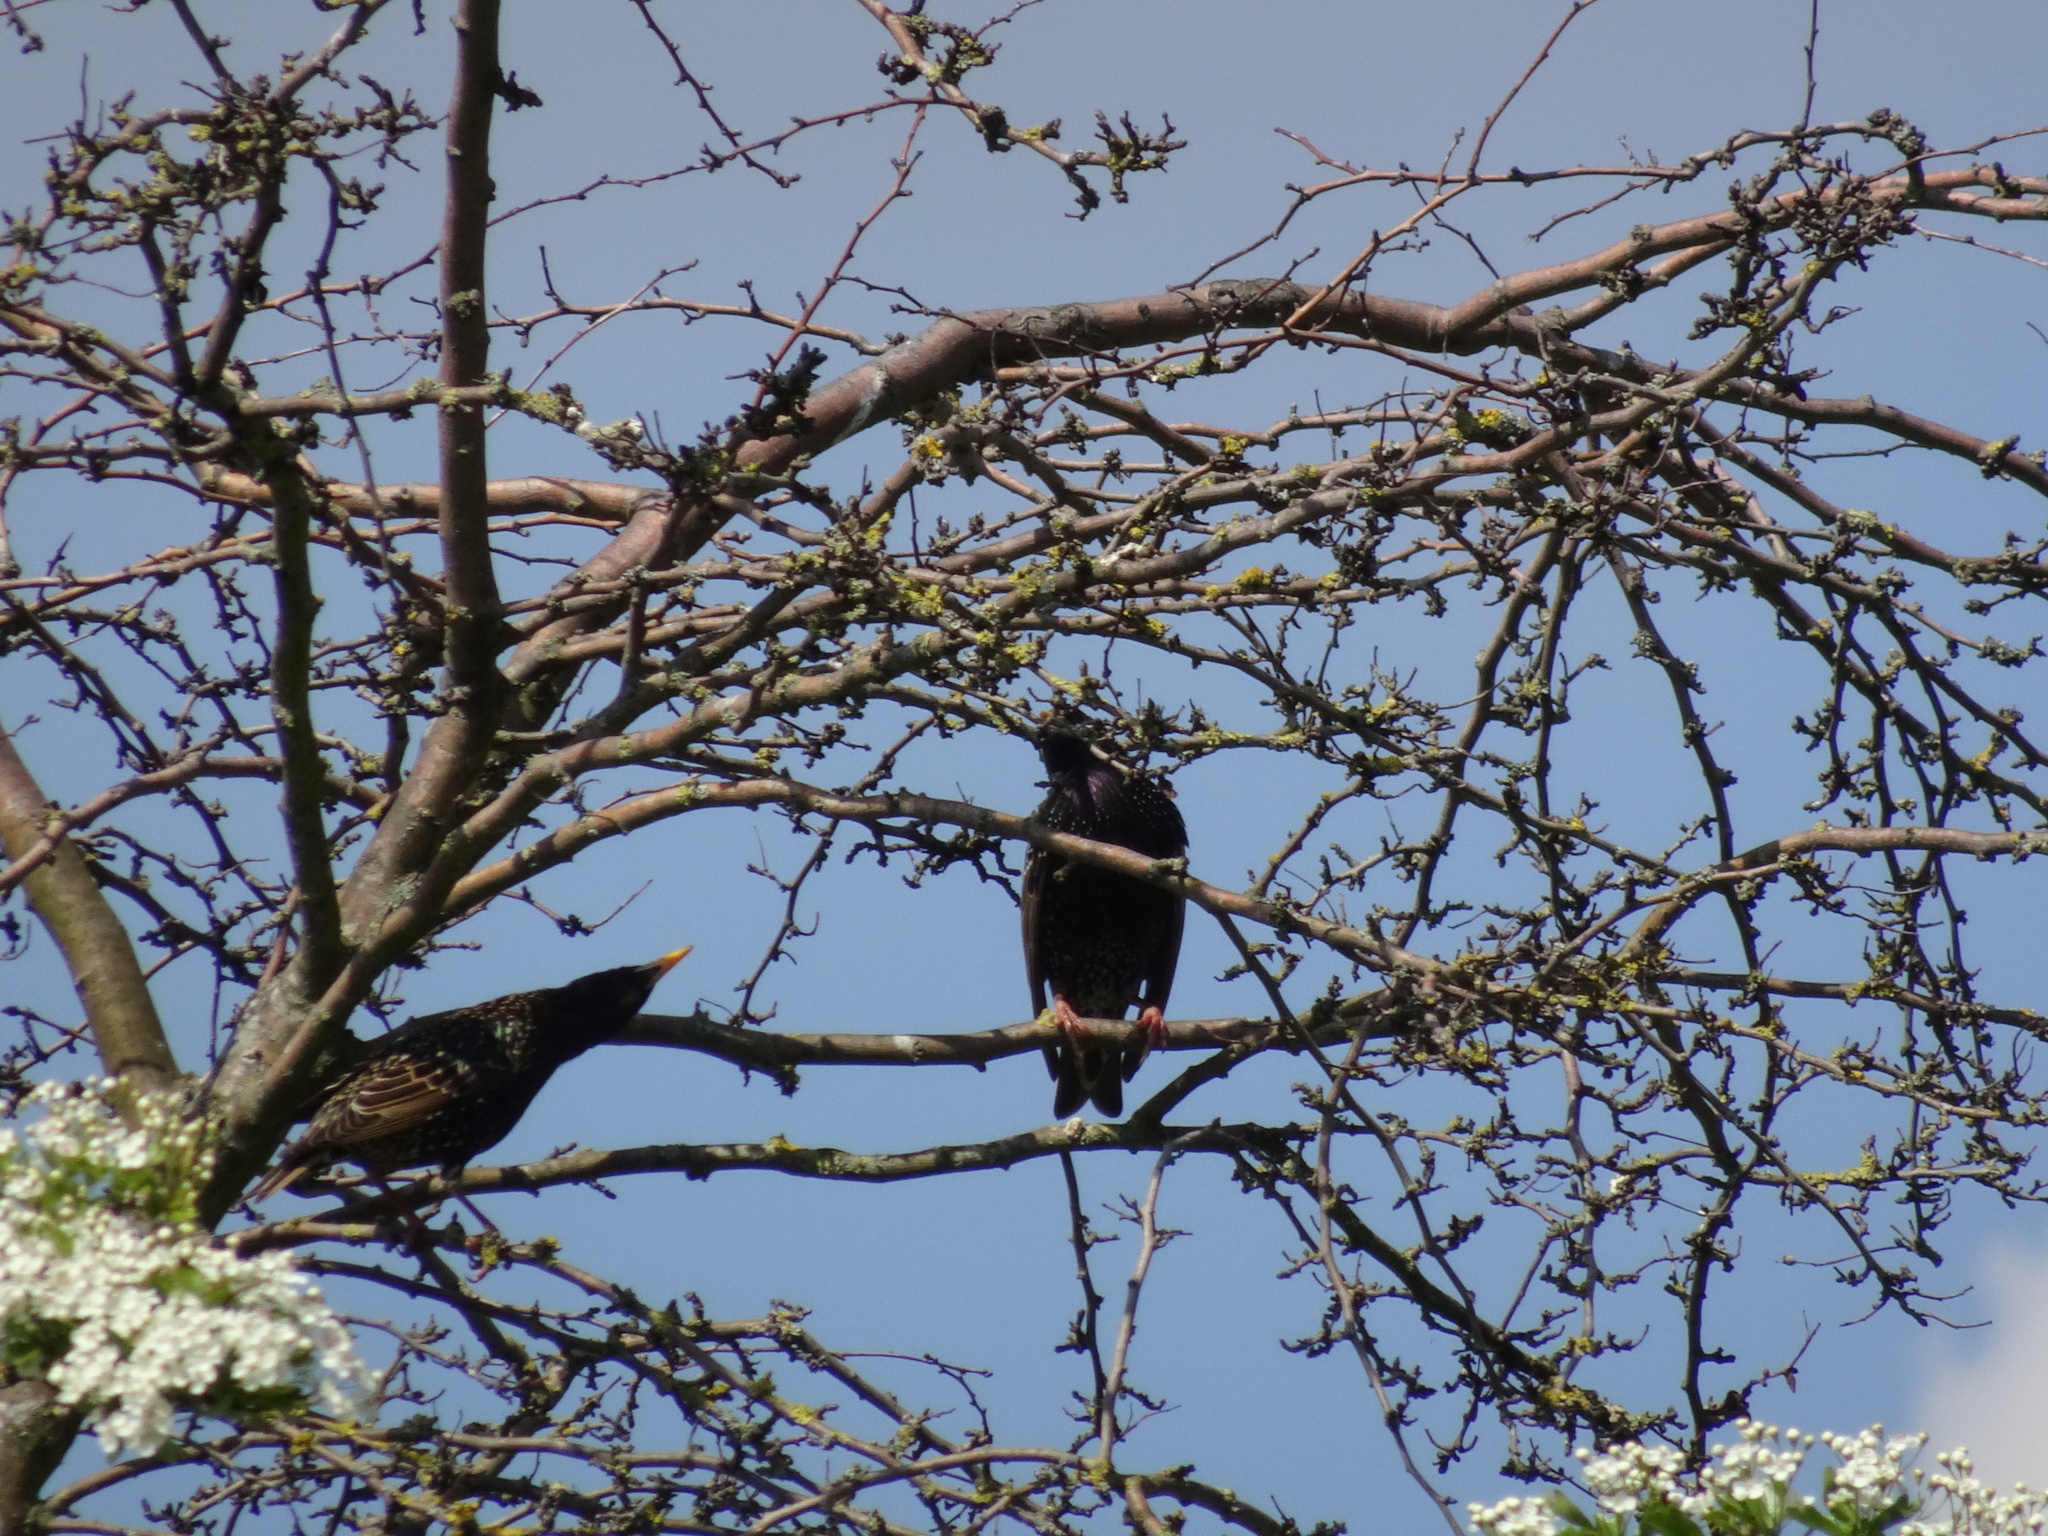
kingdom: Animalia
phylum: Chordata
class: Aves
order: Passeriformes
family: Sturnidae
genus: Sturnus
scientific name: Sturnus vulgaris
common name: Common starling
